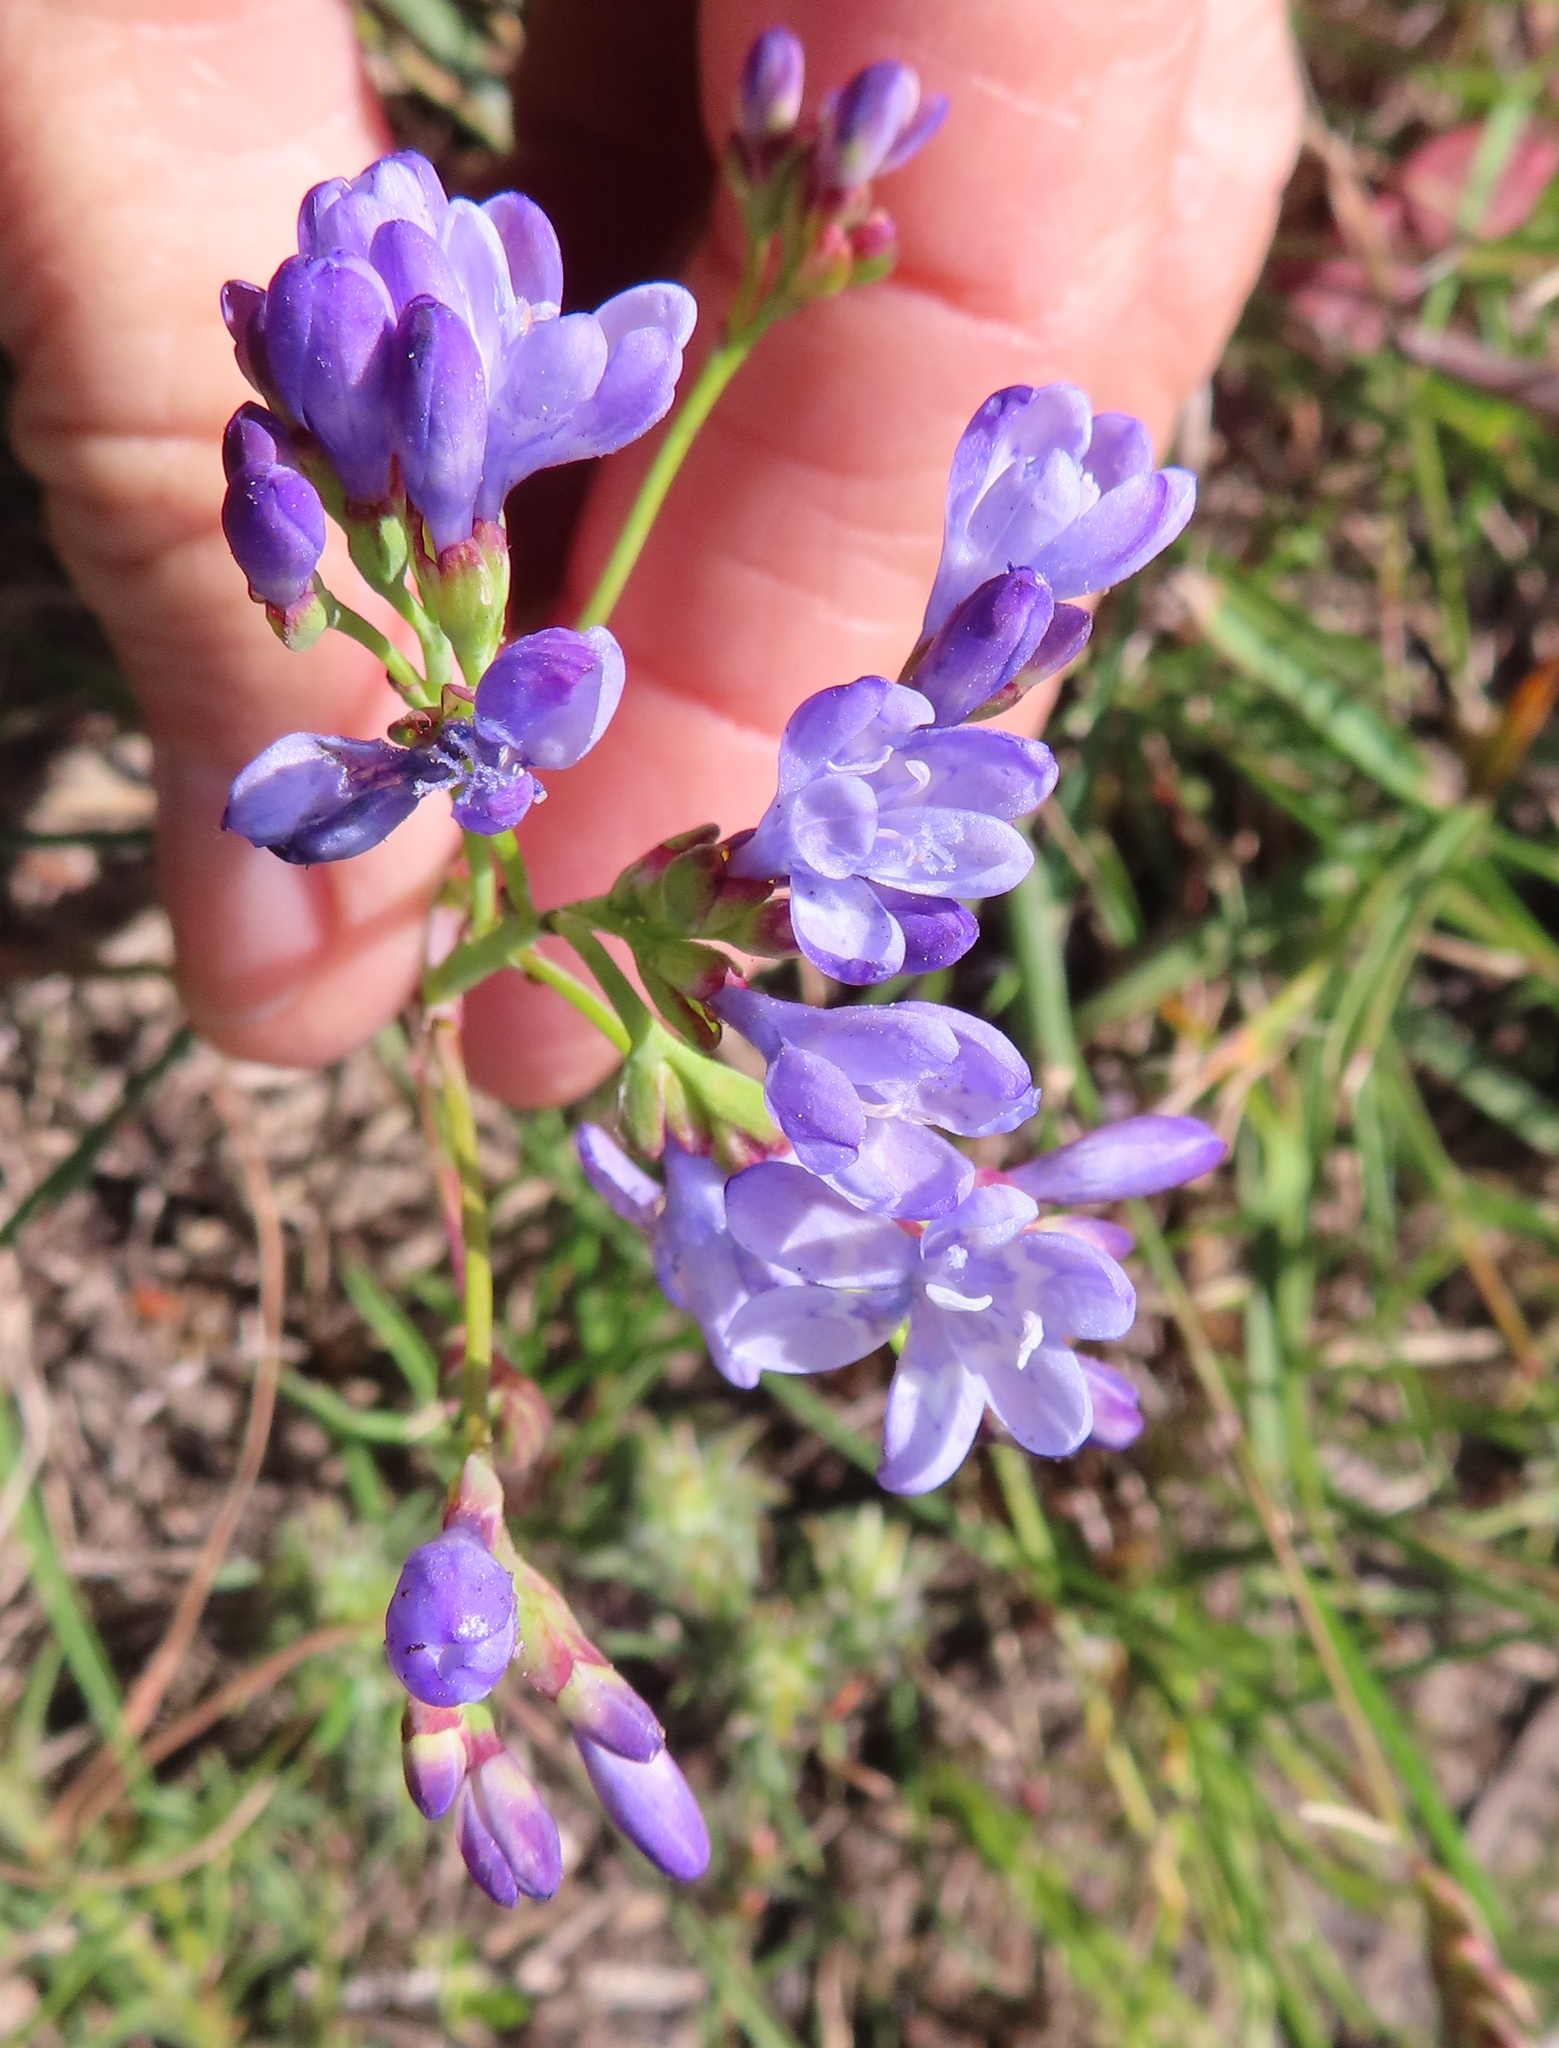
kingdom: Plantae
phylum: Tracheophyta
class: Liliopsida
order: Asparagales
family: Iridaceae
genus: Codonorhiza
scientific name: Codonorhiza corymbosa
